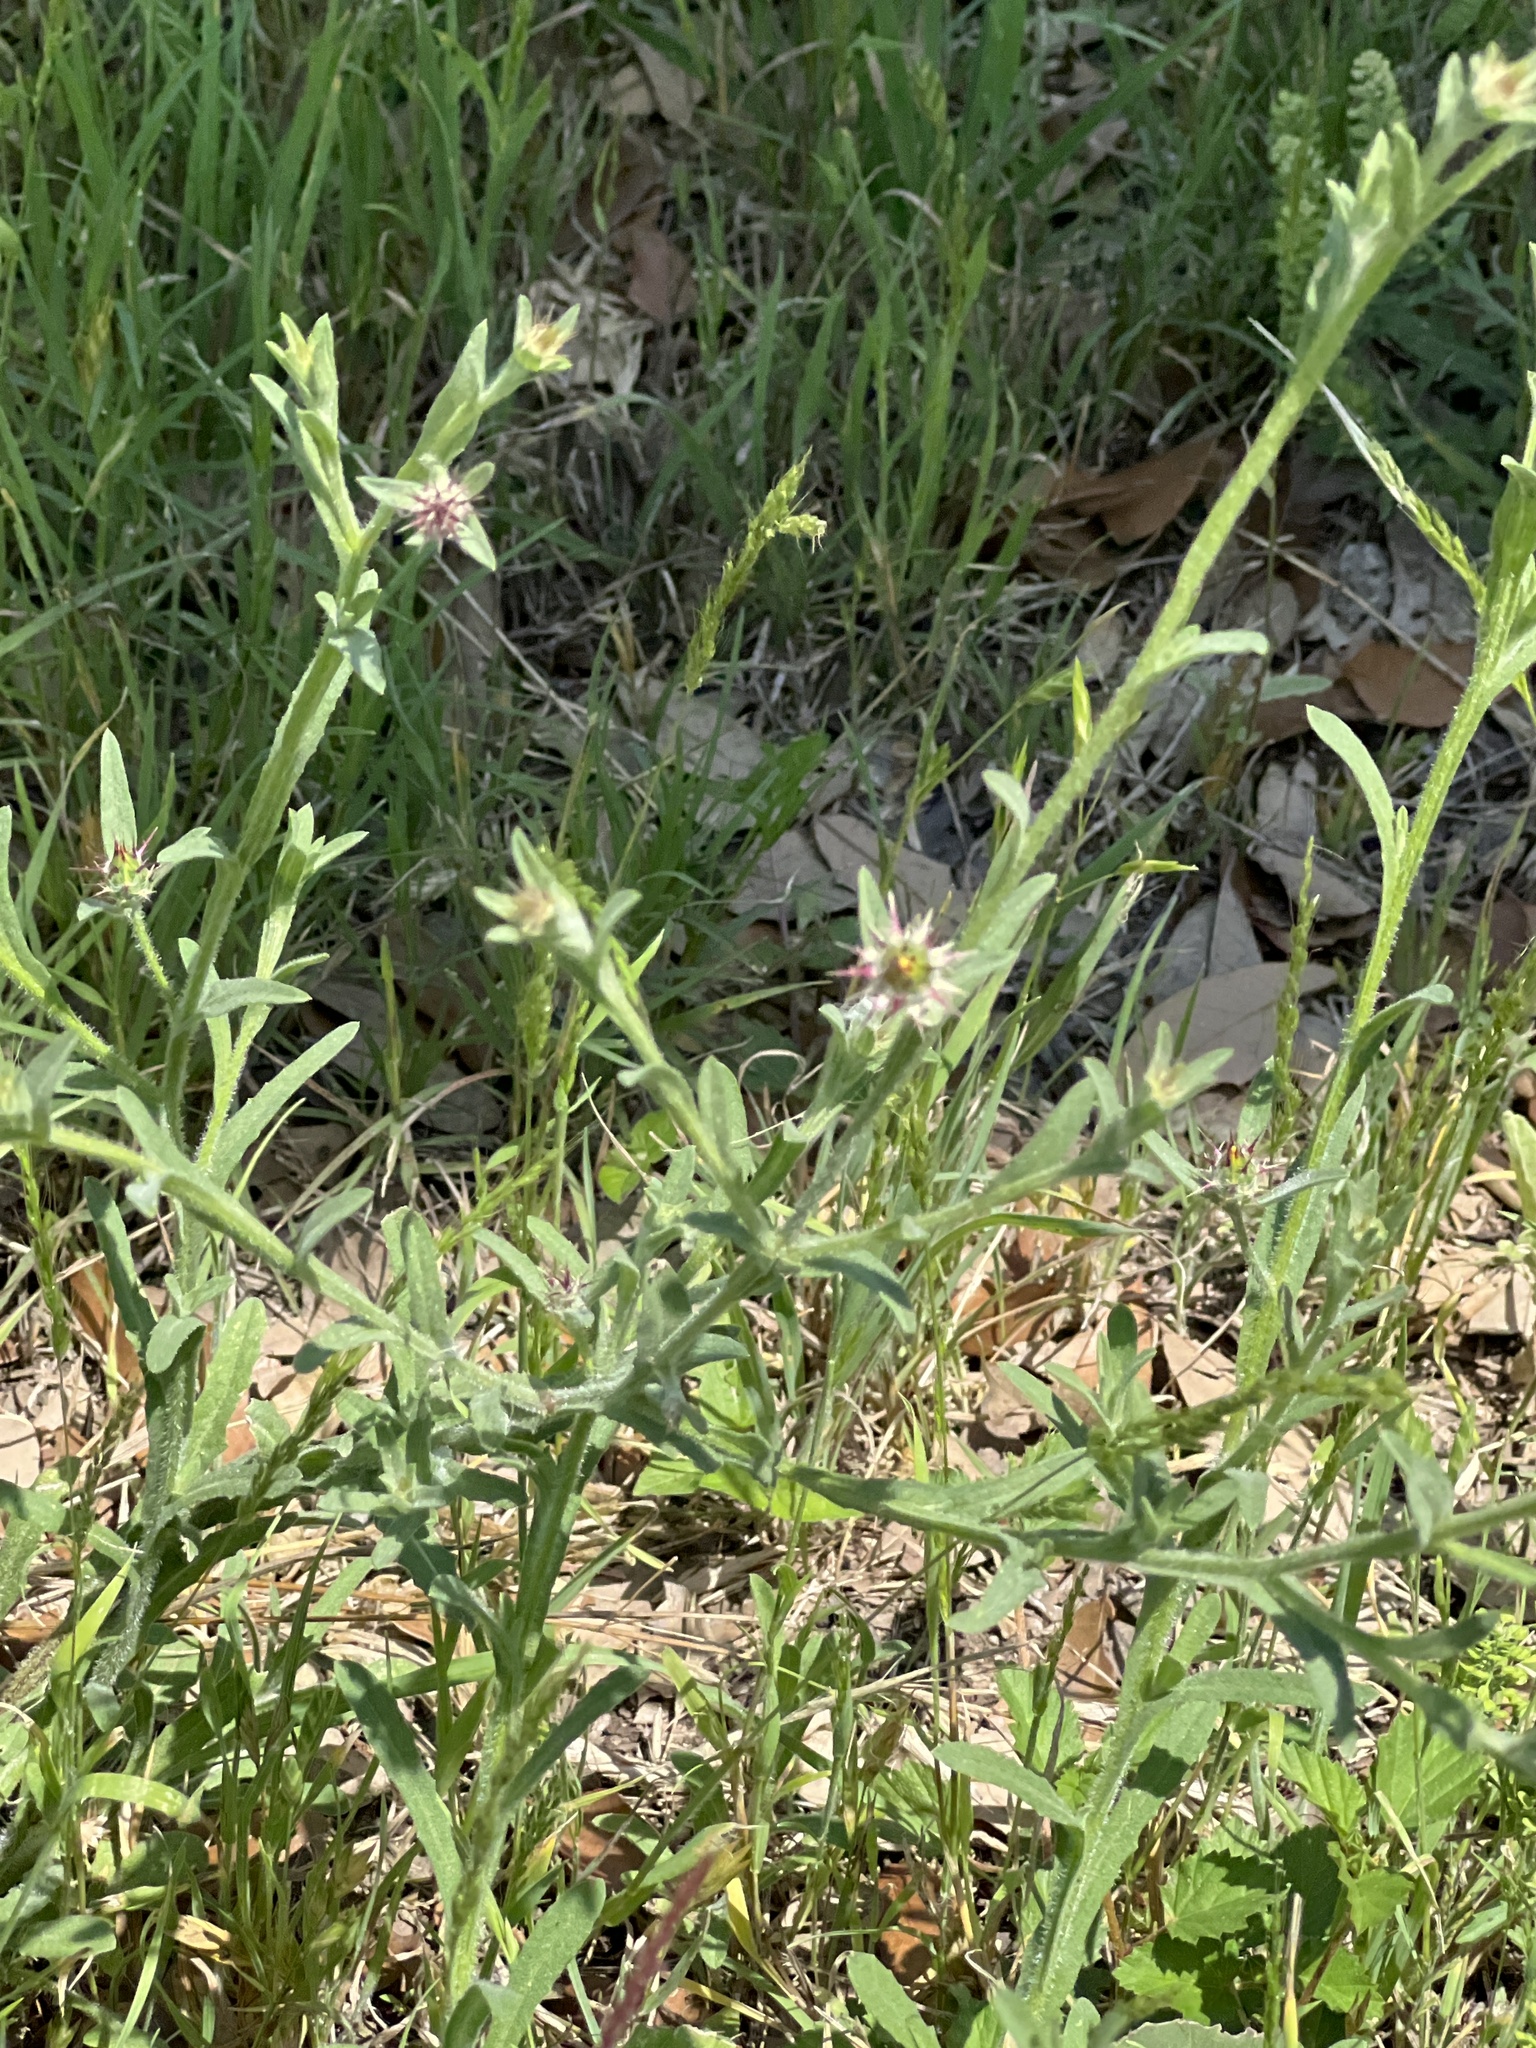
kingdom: Plantae
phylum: Tracheophyta
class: Magnoliopsida
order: Asterales
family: Asteraceae
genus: Centaurea
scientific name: Centaurea melitensis
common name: Maltese star-thistle
